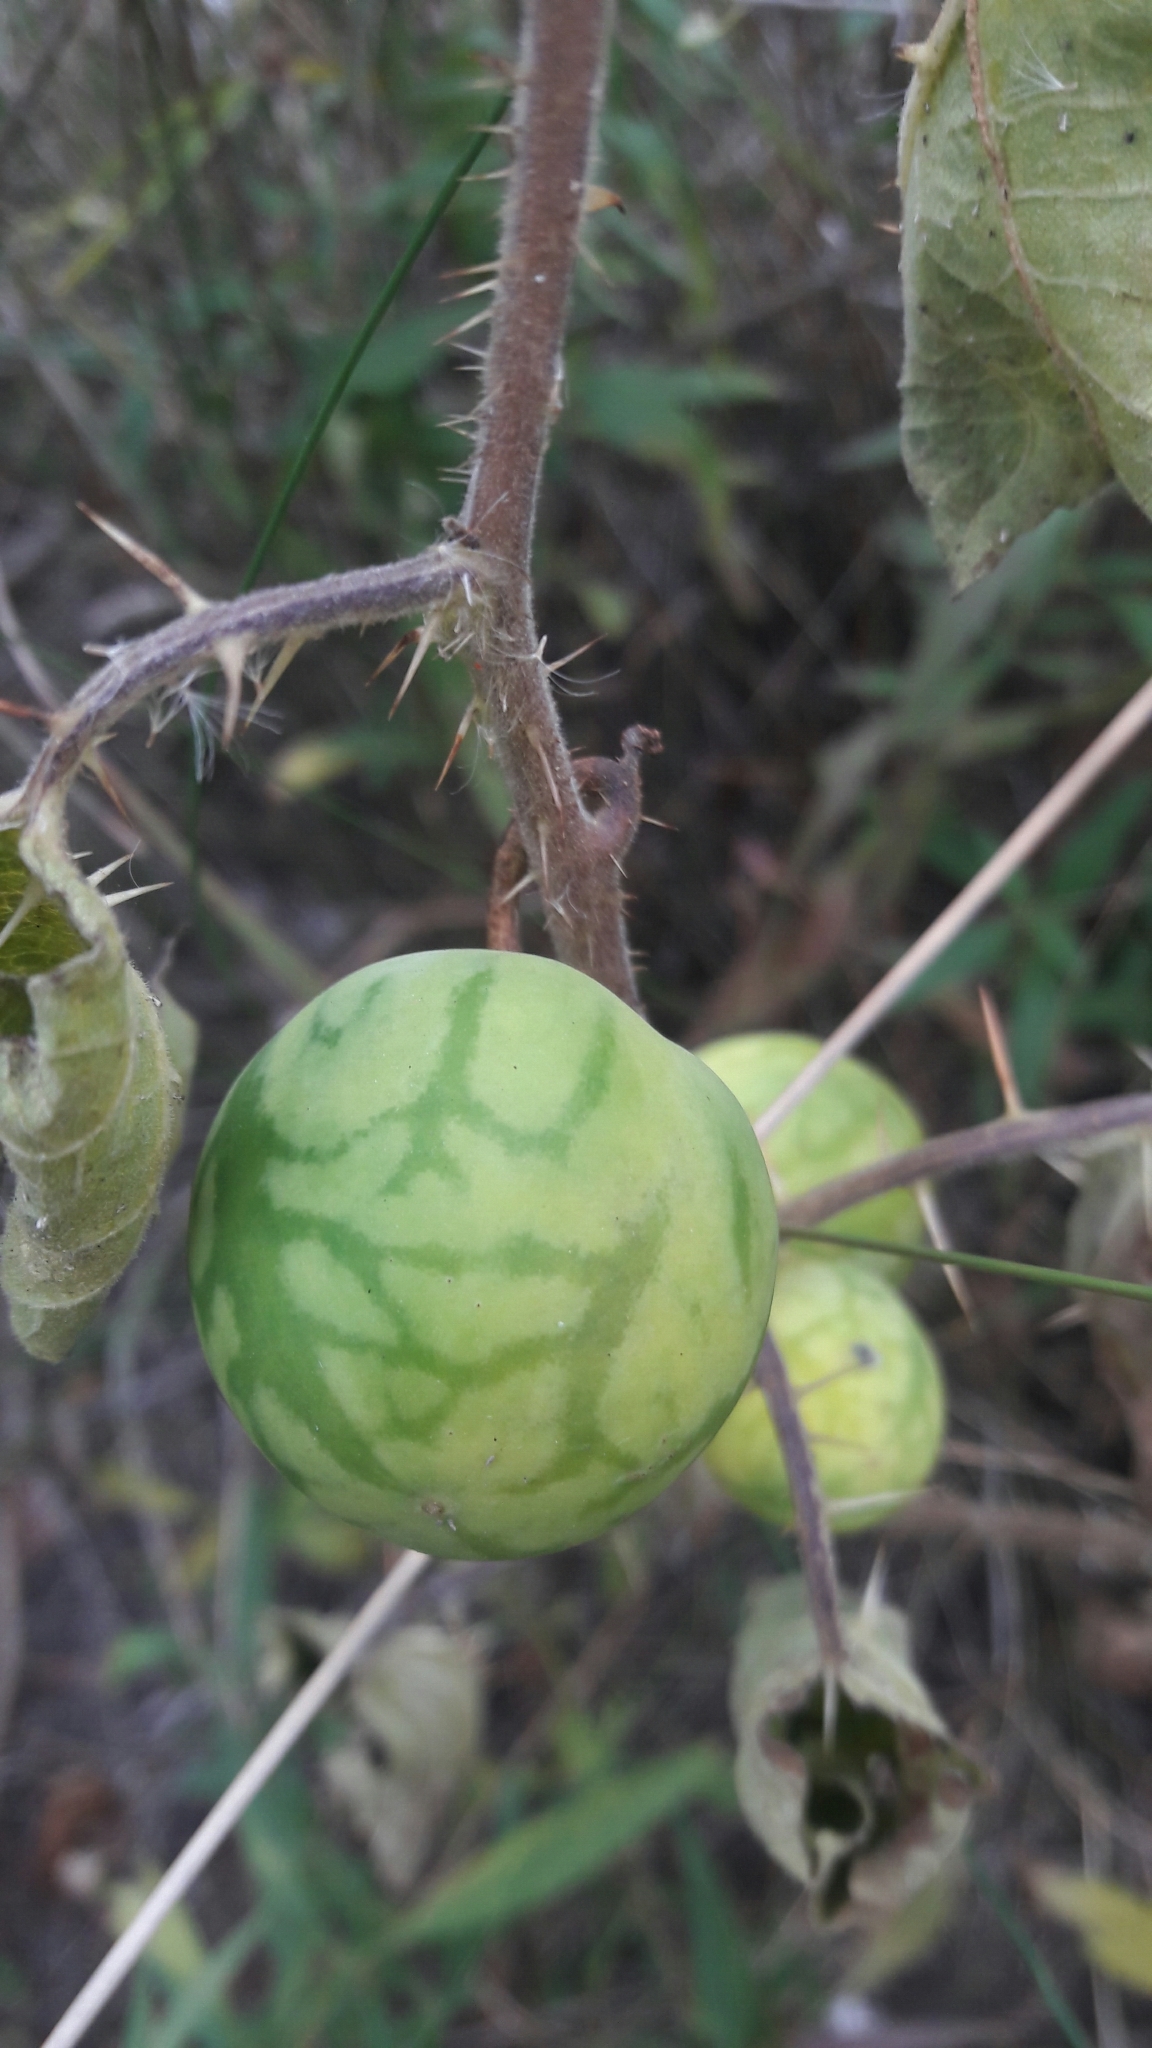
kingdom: Plantae
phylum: Tracheophyta
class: Magnoliopsida
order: Solanales
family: Solanaceae
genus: Solanum
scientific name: Solanum palinacanthum
